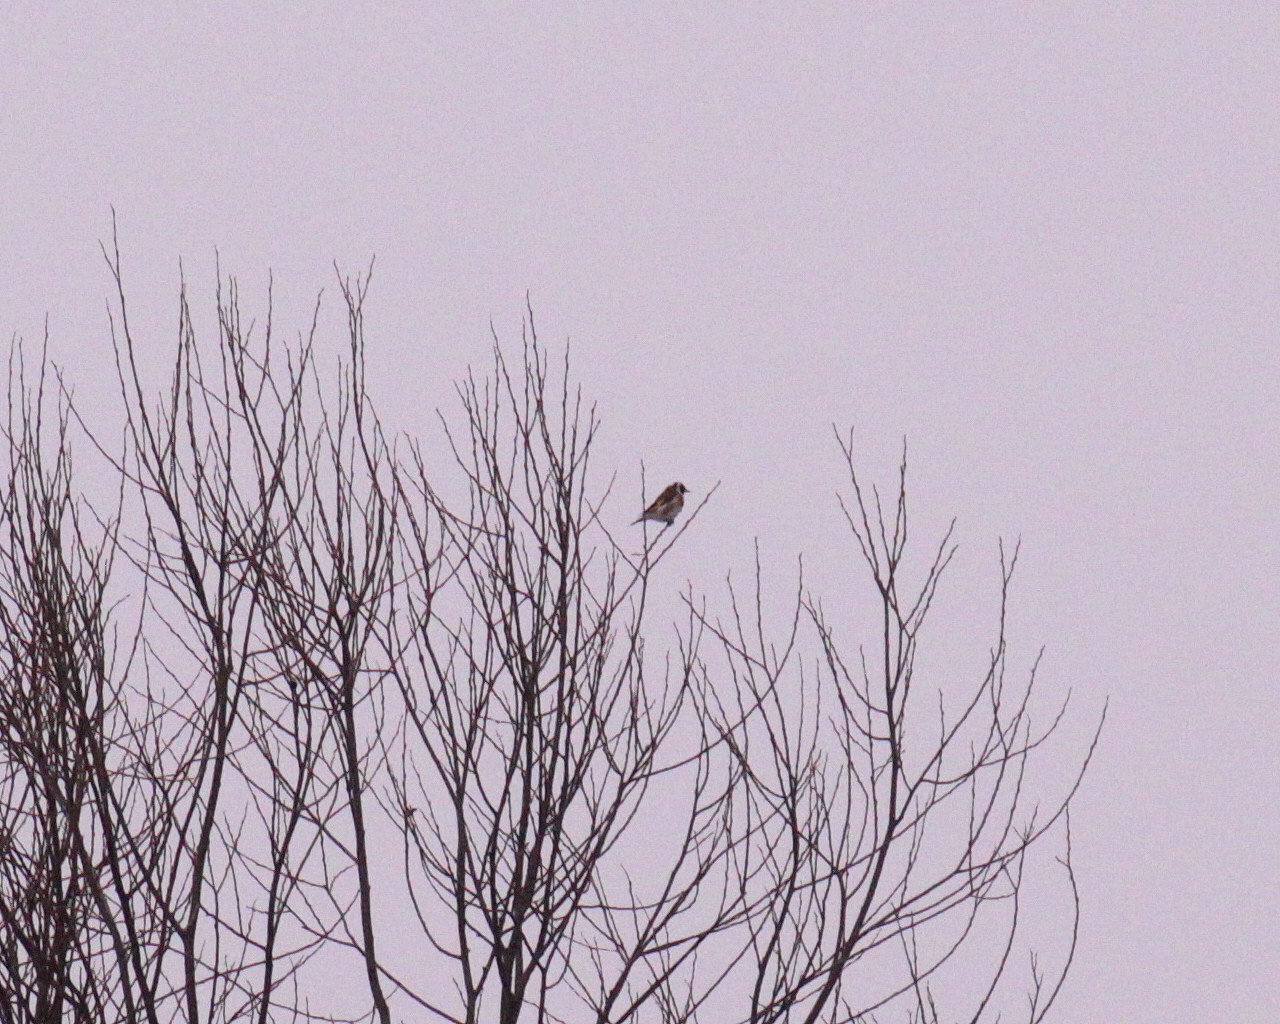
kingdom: Animalia
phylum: Chordata
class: Aves
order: Passeriformes
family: Fringillidae
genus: Carduelis
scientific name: Carduelis carduelis
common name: European goldfinch
